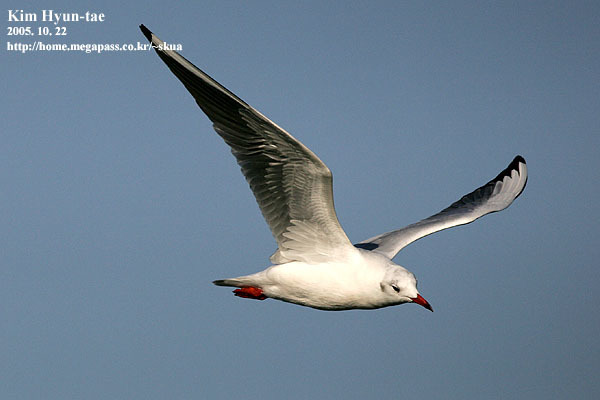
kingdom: Animalia
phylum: Chordata
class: Aves
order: Charadriiformes
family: Laridae
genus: Chroicocephalus
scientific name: Chroicocephalus ridibundus
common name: Black-headed gull
